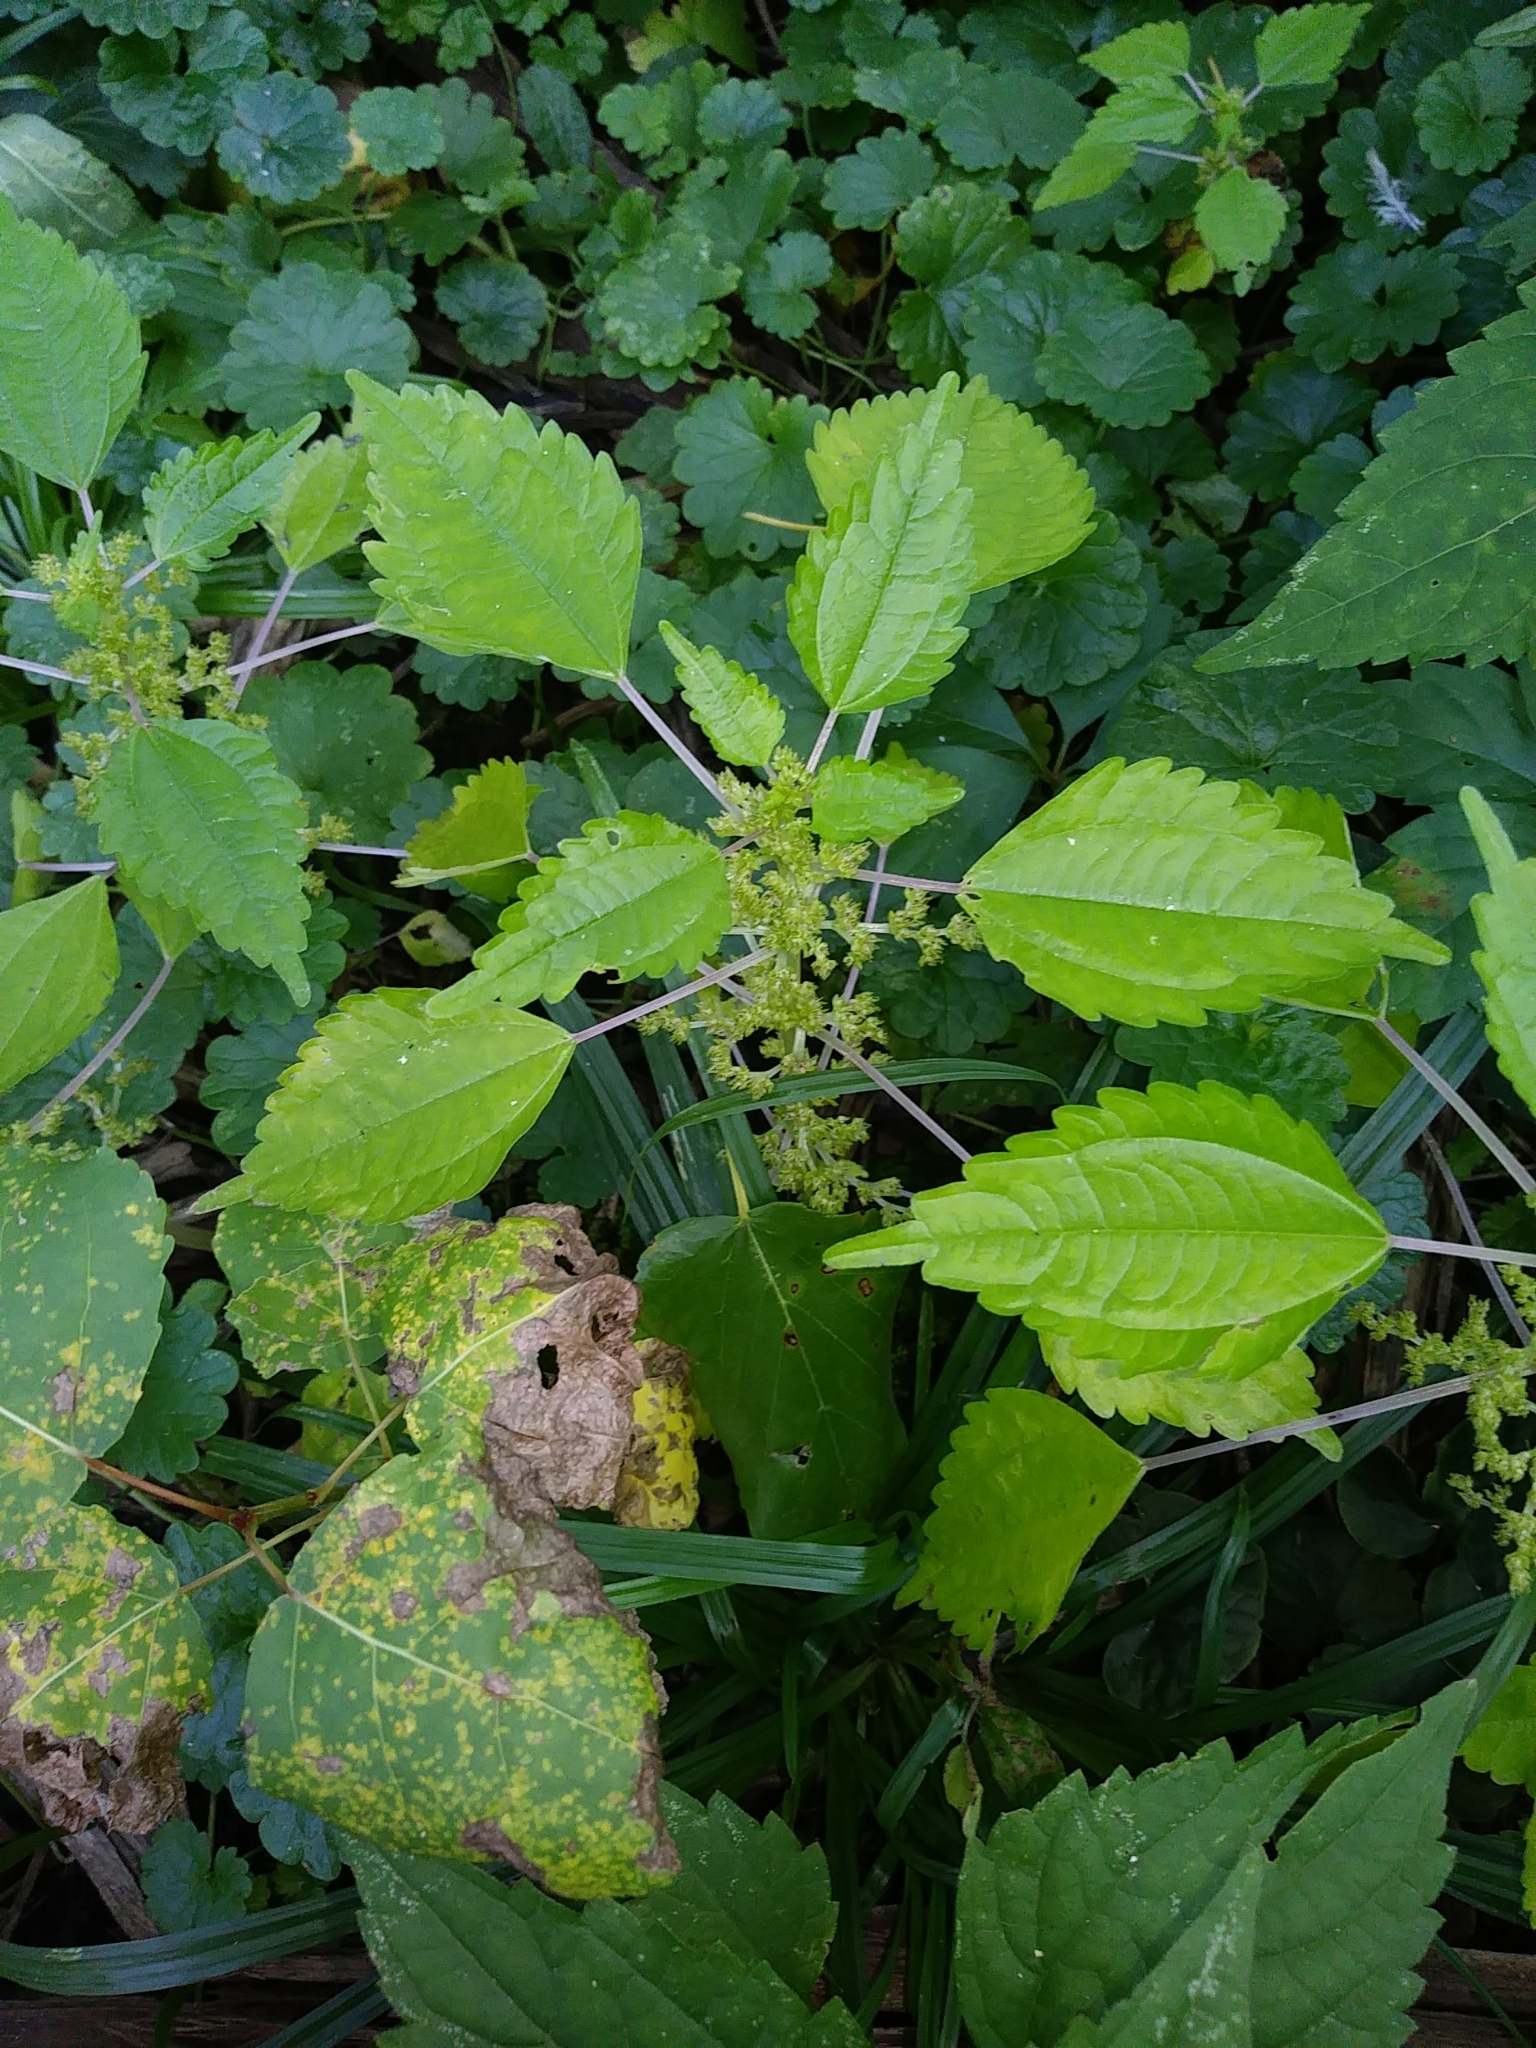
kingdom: Plantae
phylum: Tracheophyta
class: Magnoliopsida
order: Rosales
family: Urticaceae
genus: Pilea
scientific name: Pilea pumila
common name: Clearweed
